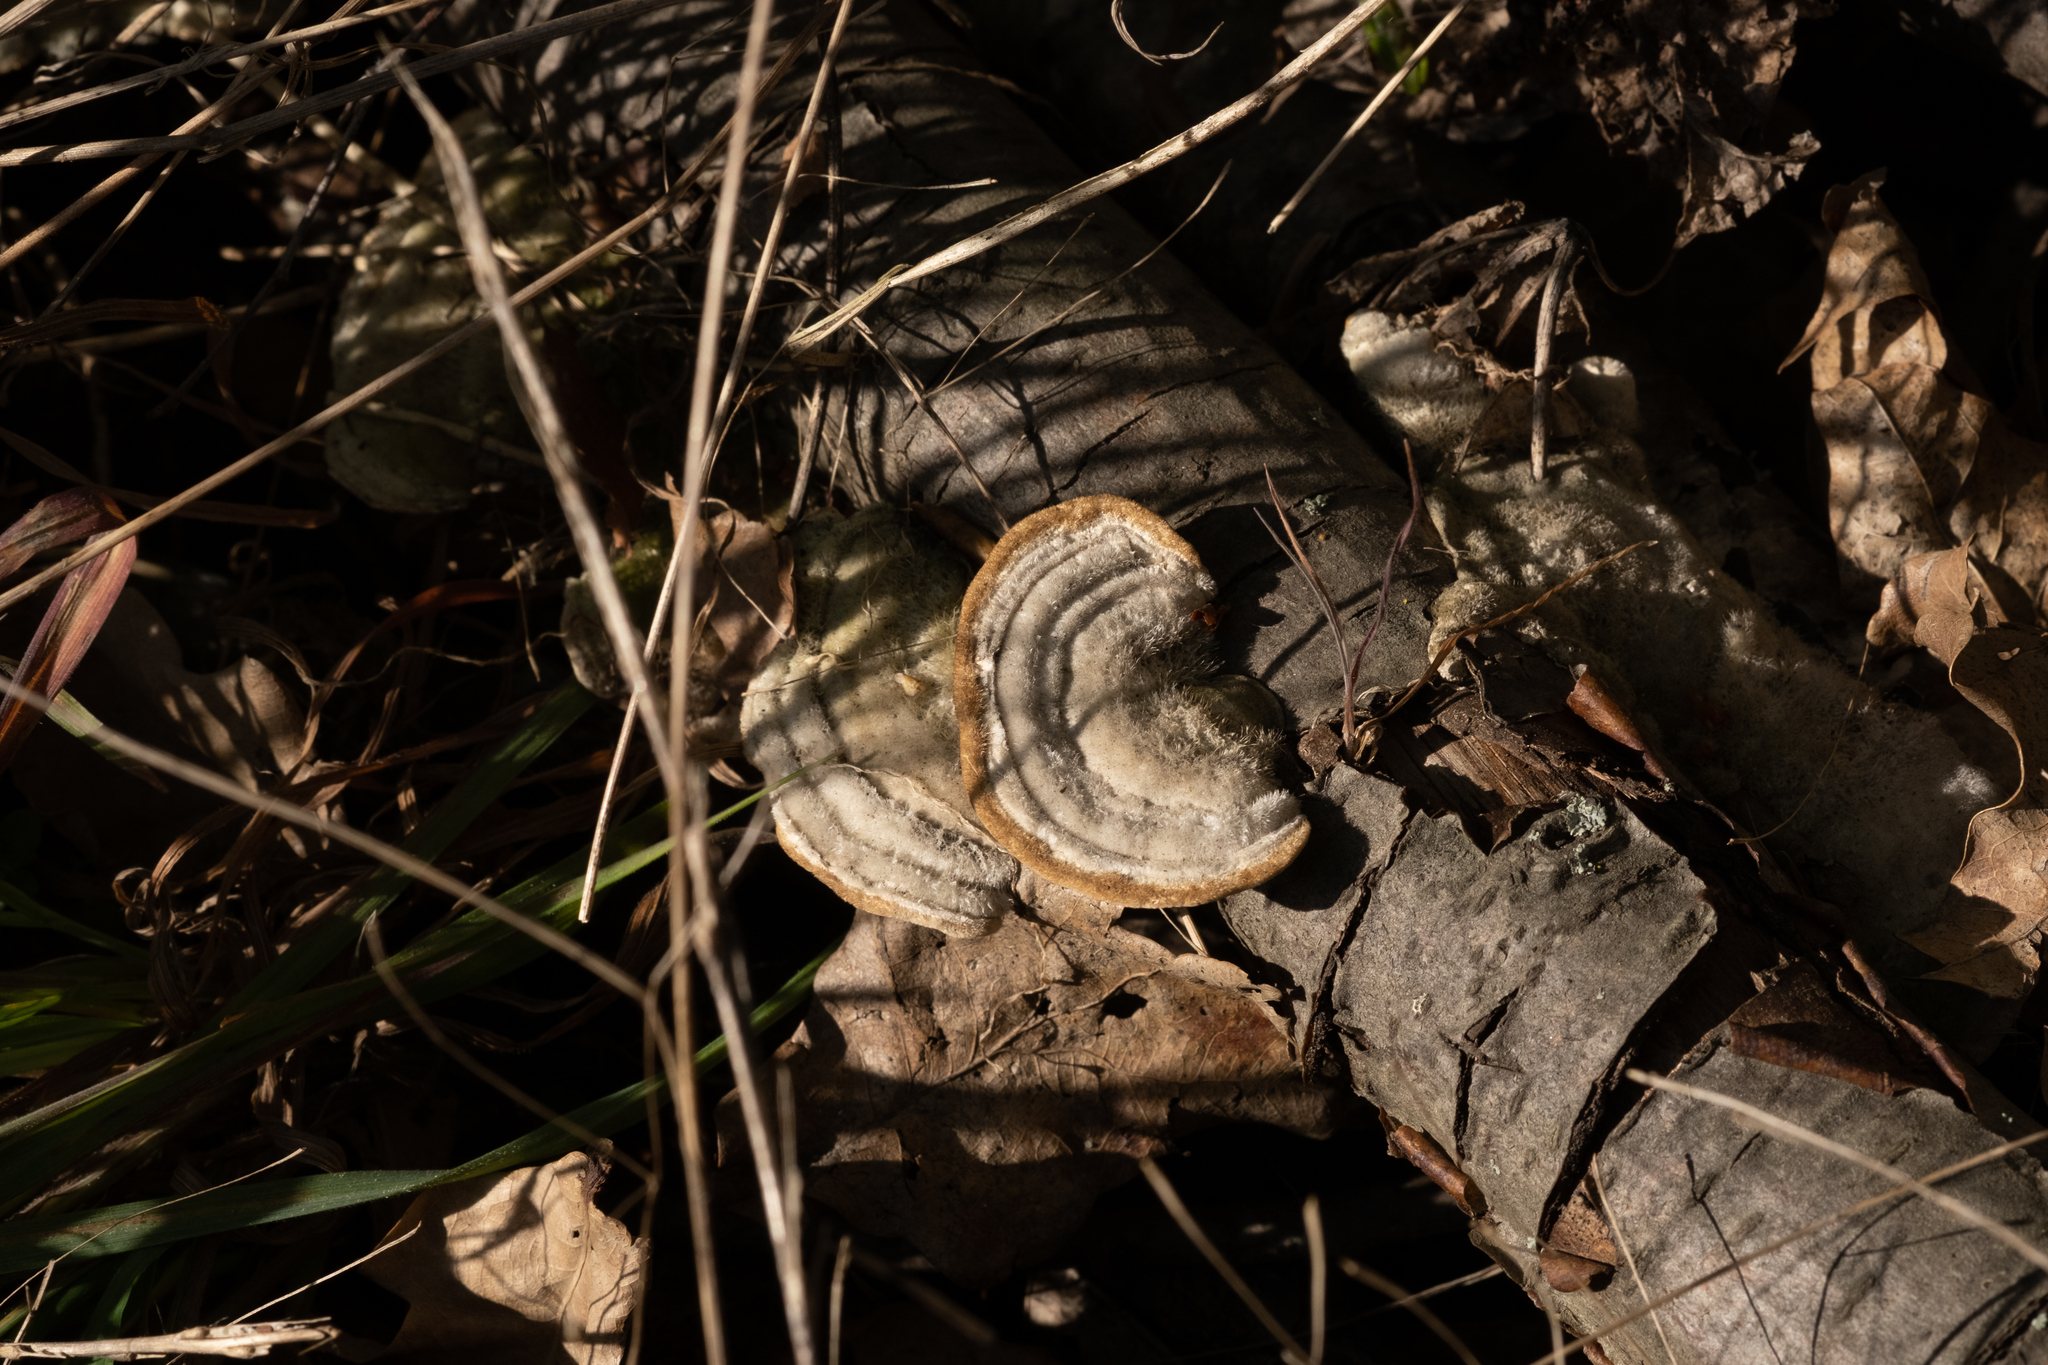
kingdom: Fungi
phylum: Basidiomycota
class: Agaricomycetes
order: Polyporales
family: Polyporaceae
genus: Trametes
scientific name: Trametes hirsuta
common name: Hairy bracket
